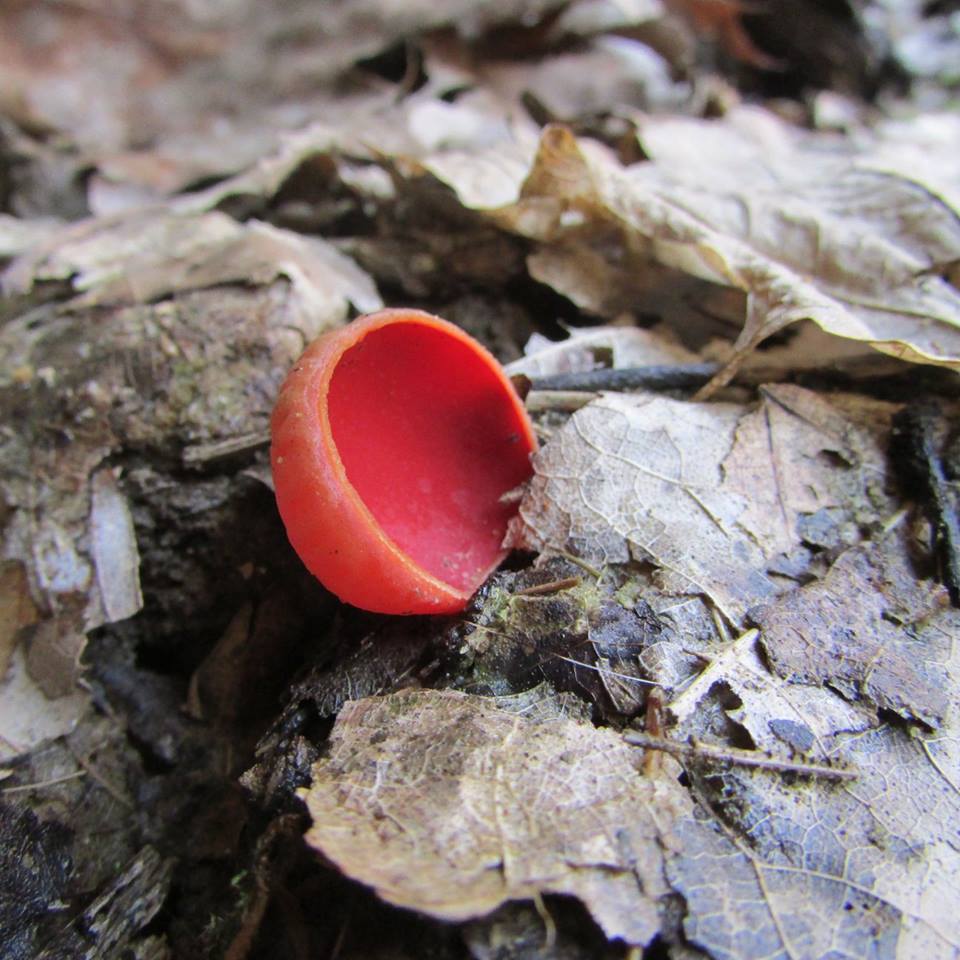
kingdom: Fungi
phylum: Ascomycota
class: Pezizomycetes
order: Pezizales
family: Sarcoscyphaceae
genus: Sarcoscypha
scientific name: Sarcoscypha austriaca
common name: Scarlet elfcup
